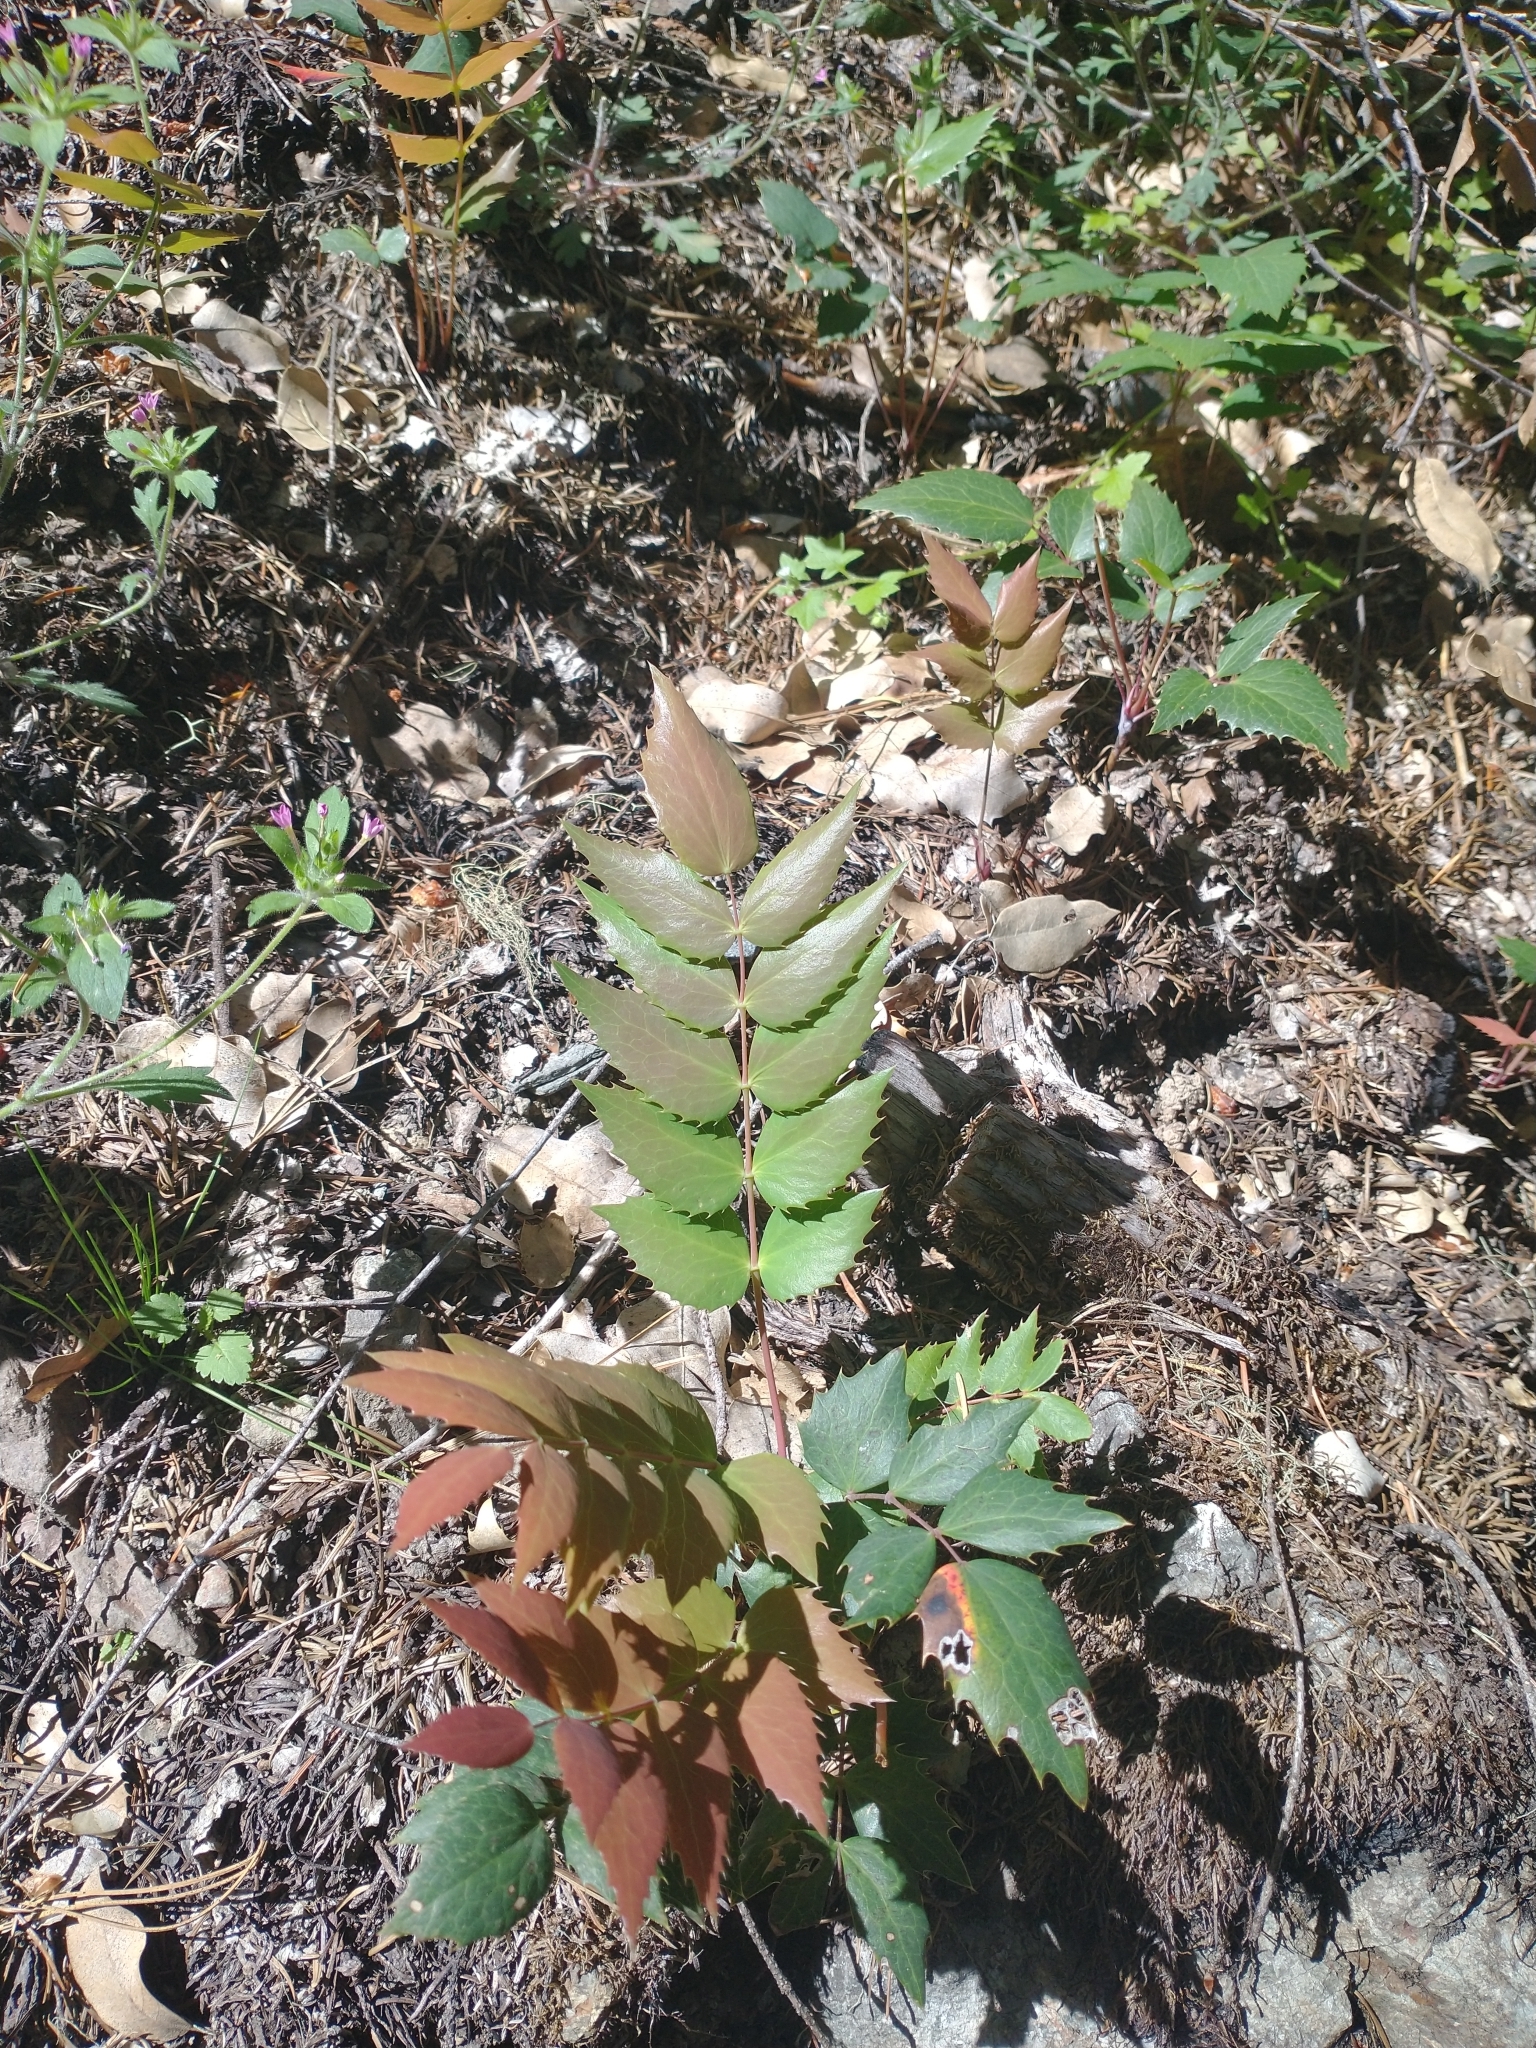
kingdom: Plantae
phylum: Tracheophyta
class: Magnoliopsida
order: Ranunculales
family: Berberidaceae
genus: Mahonia
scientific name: Mahonia nervosa
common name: Cascade oregon-grape
